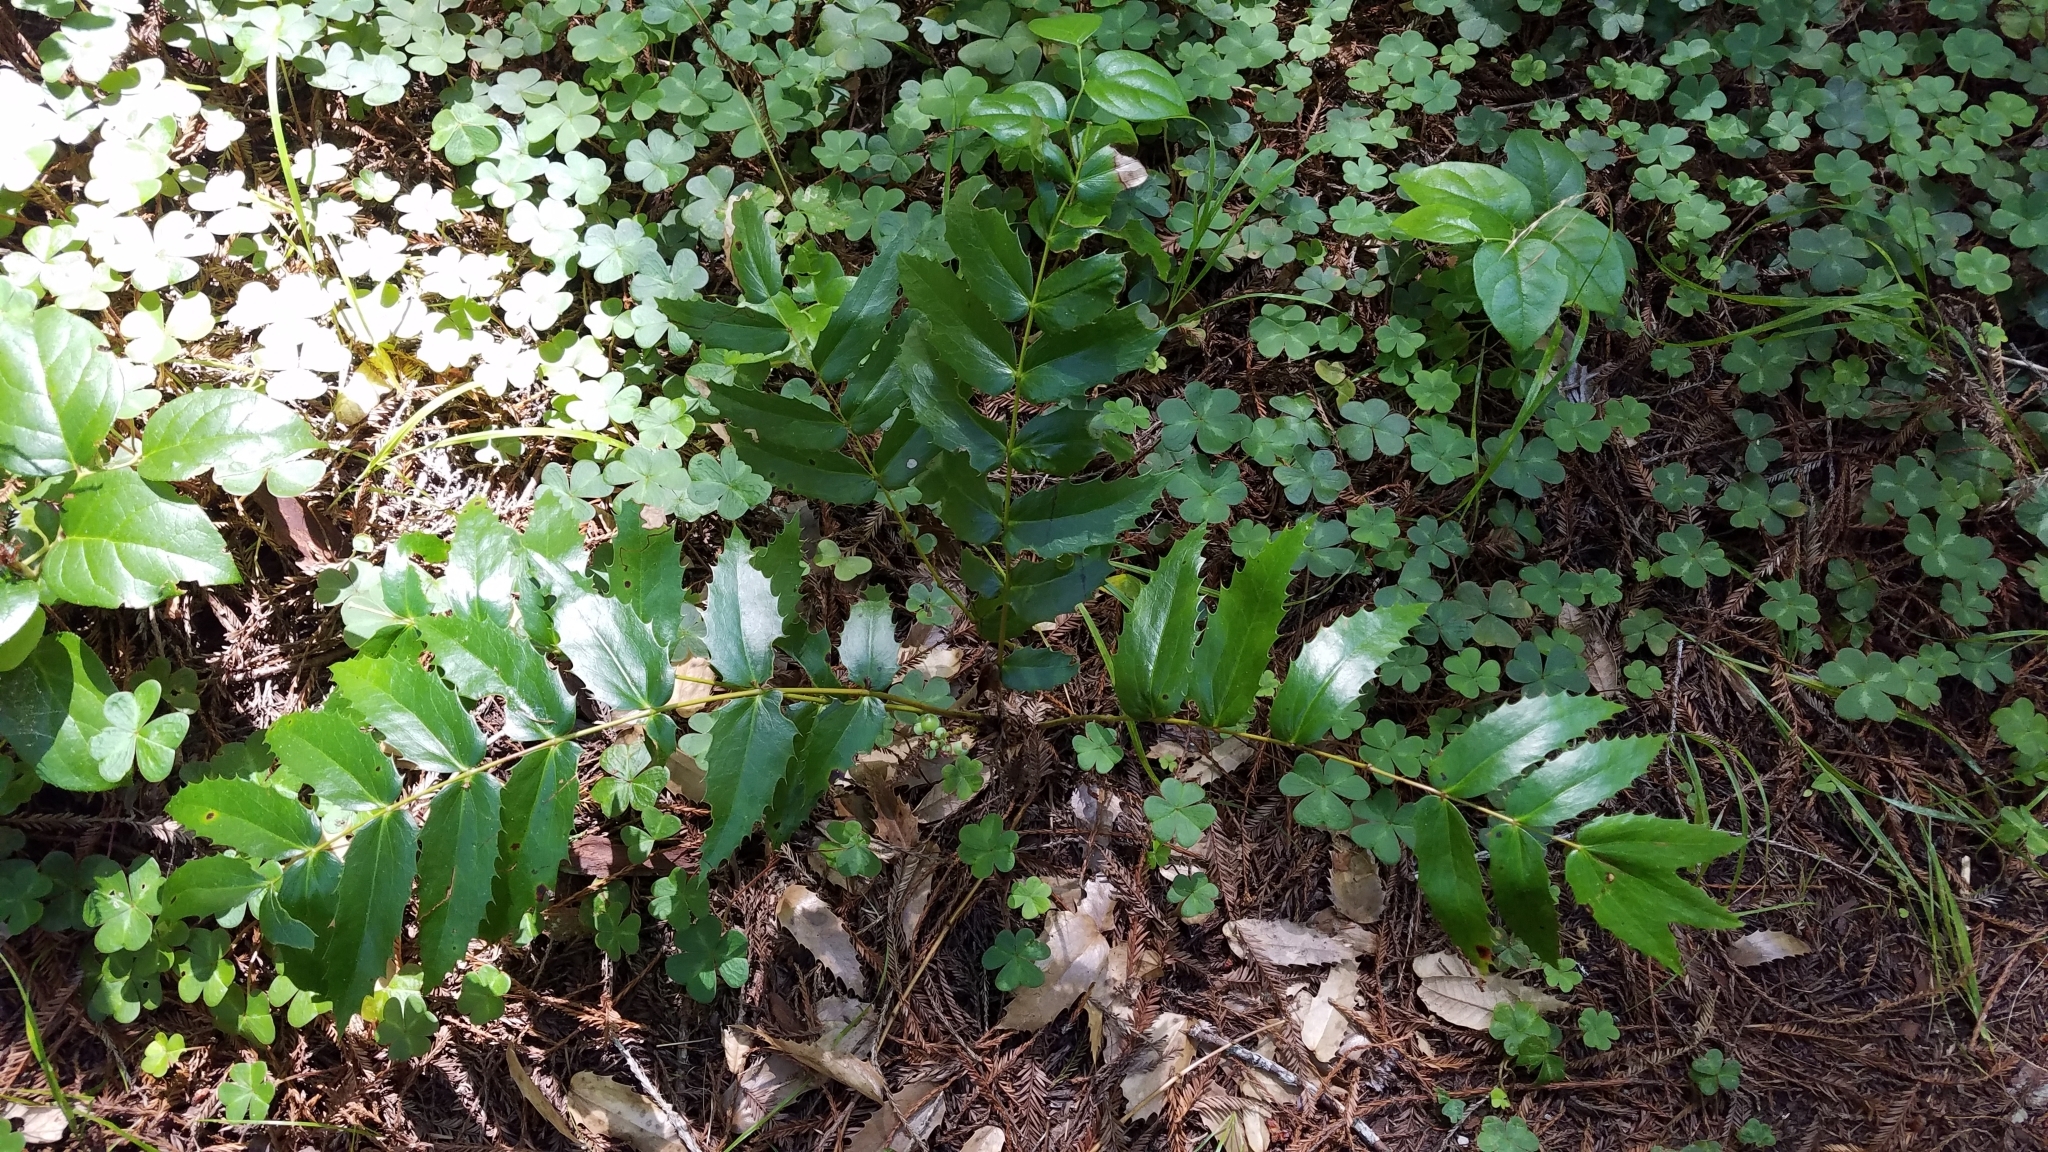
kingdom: Plantae
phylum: Tracheophyta
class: Magnoliopsida
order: Ranunculales
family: Berberidaceae
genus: Mahonia
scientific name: Mahonia nervosa
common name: Cascade oregon-grape
